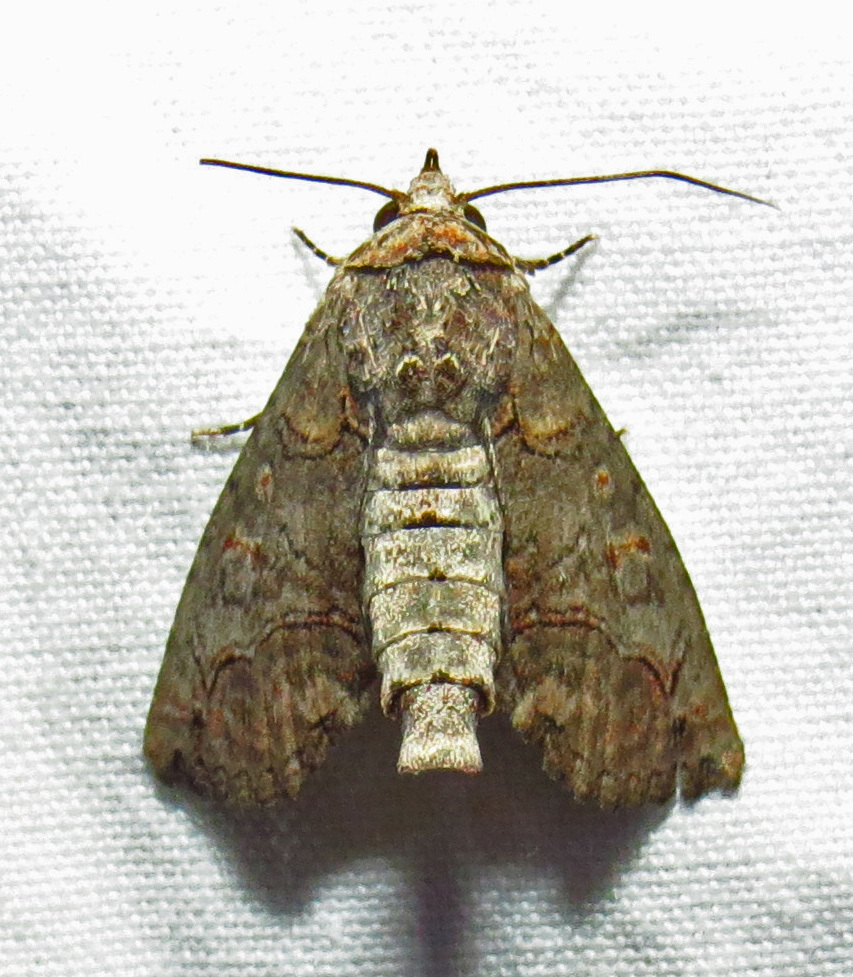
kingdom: Animalia
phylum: Arthropoda
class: Insecta
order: Lepidoptera
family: Euteliidae
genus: Paectes
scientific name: Paectes abrostoloides
